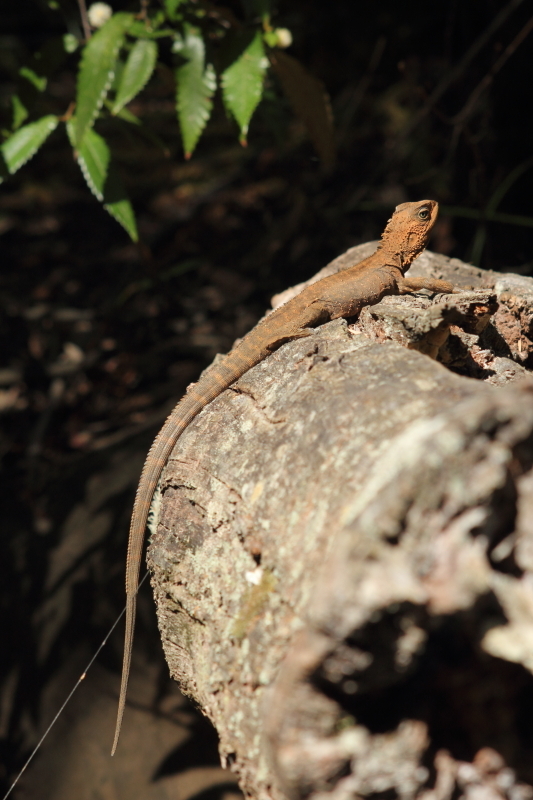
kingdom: Animalia
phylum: Chordata
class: Squamata
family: Agamidae
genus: Intellagama
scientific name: Intellagama lesueurii
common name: Eastern water dragon
